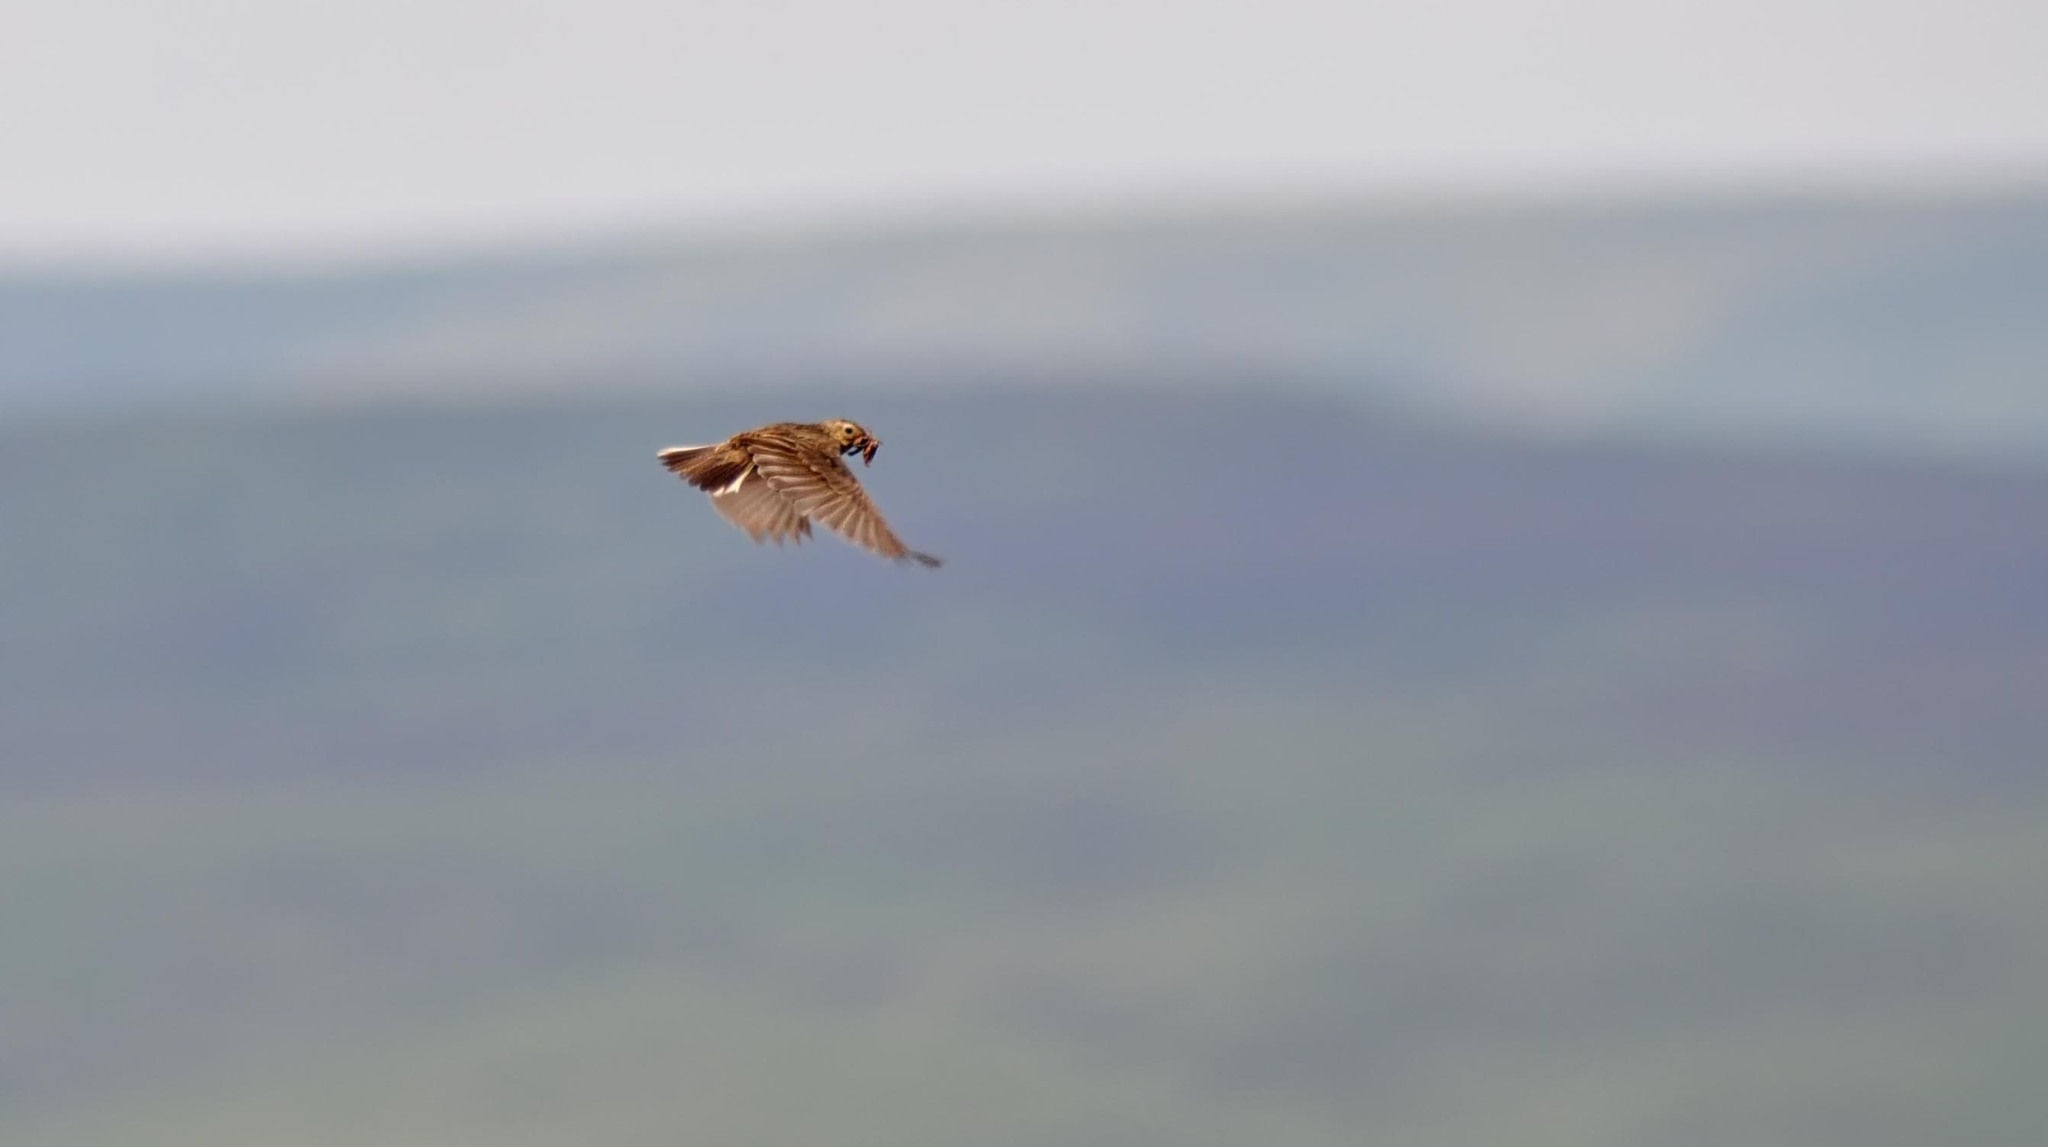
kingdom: Animalia
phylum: Chordata
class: Aves
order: Passeriformes
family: Alaudidae
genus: Alauda
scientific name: Alauda arvensis
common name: Eurasian skylark
